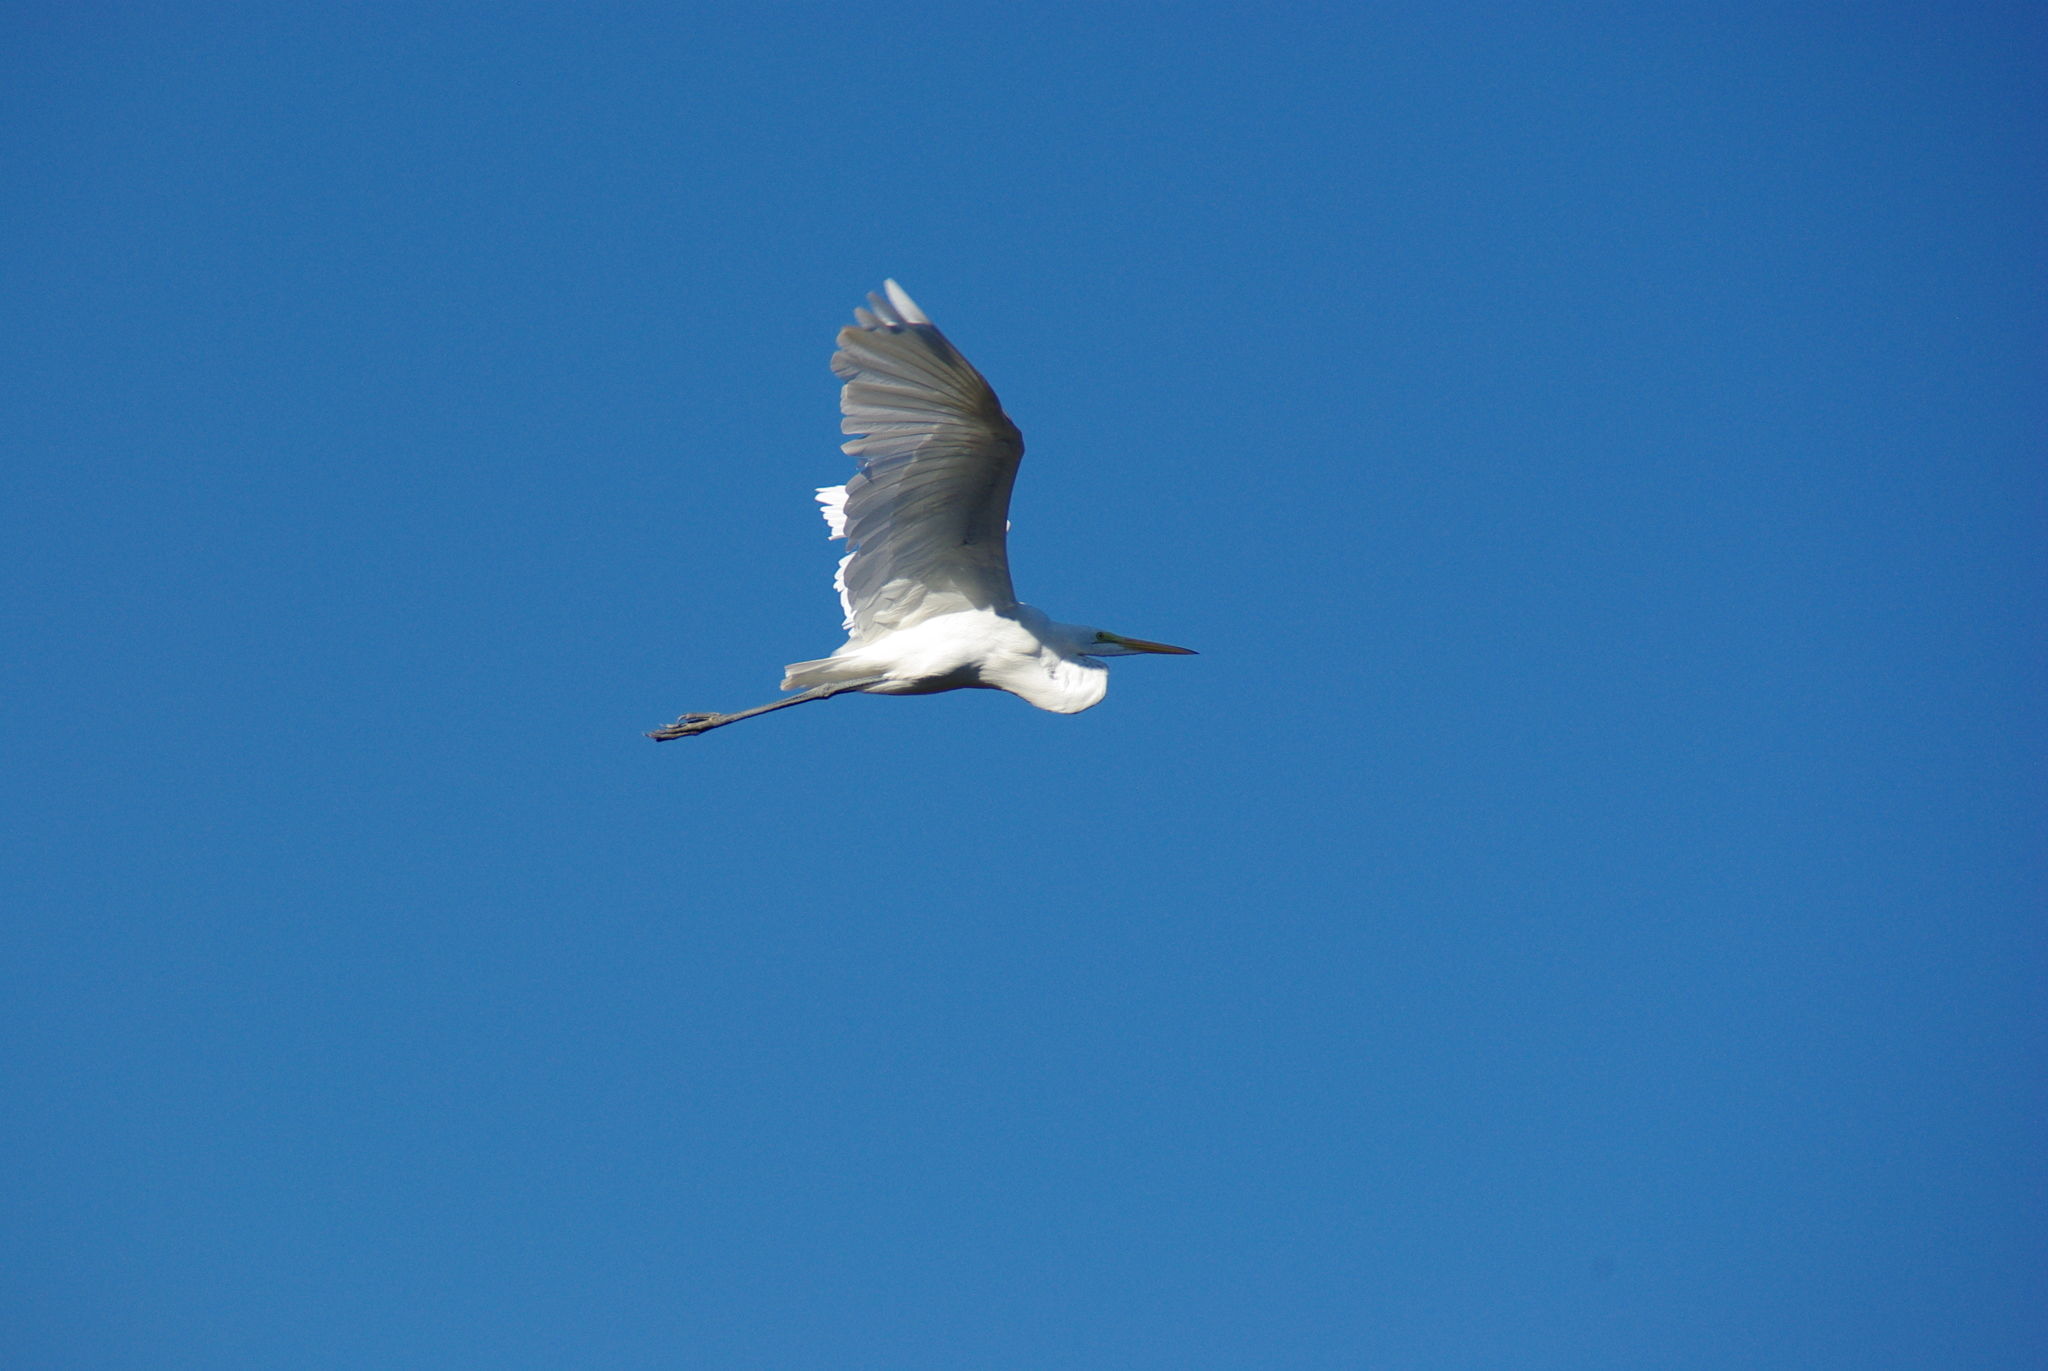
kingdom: Animalia
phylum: Chordata
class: Aves
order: Pelecaniformes
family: Ardeidae
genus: Ardea
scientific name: Ardea alba
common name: Great egret
